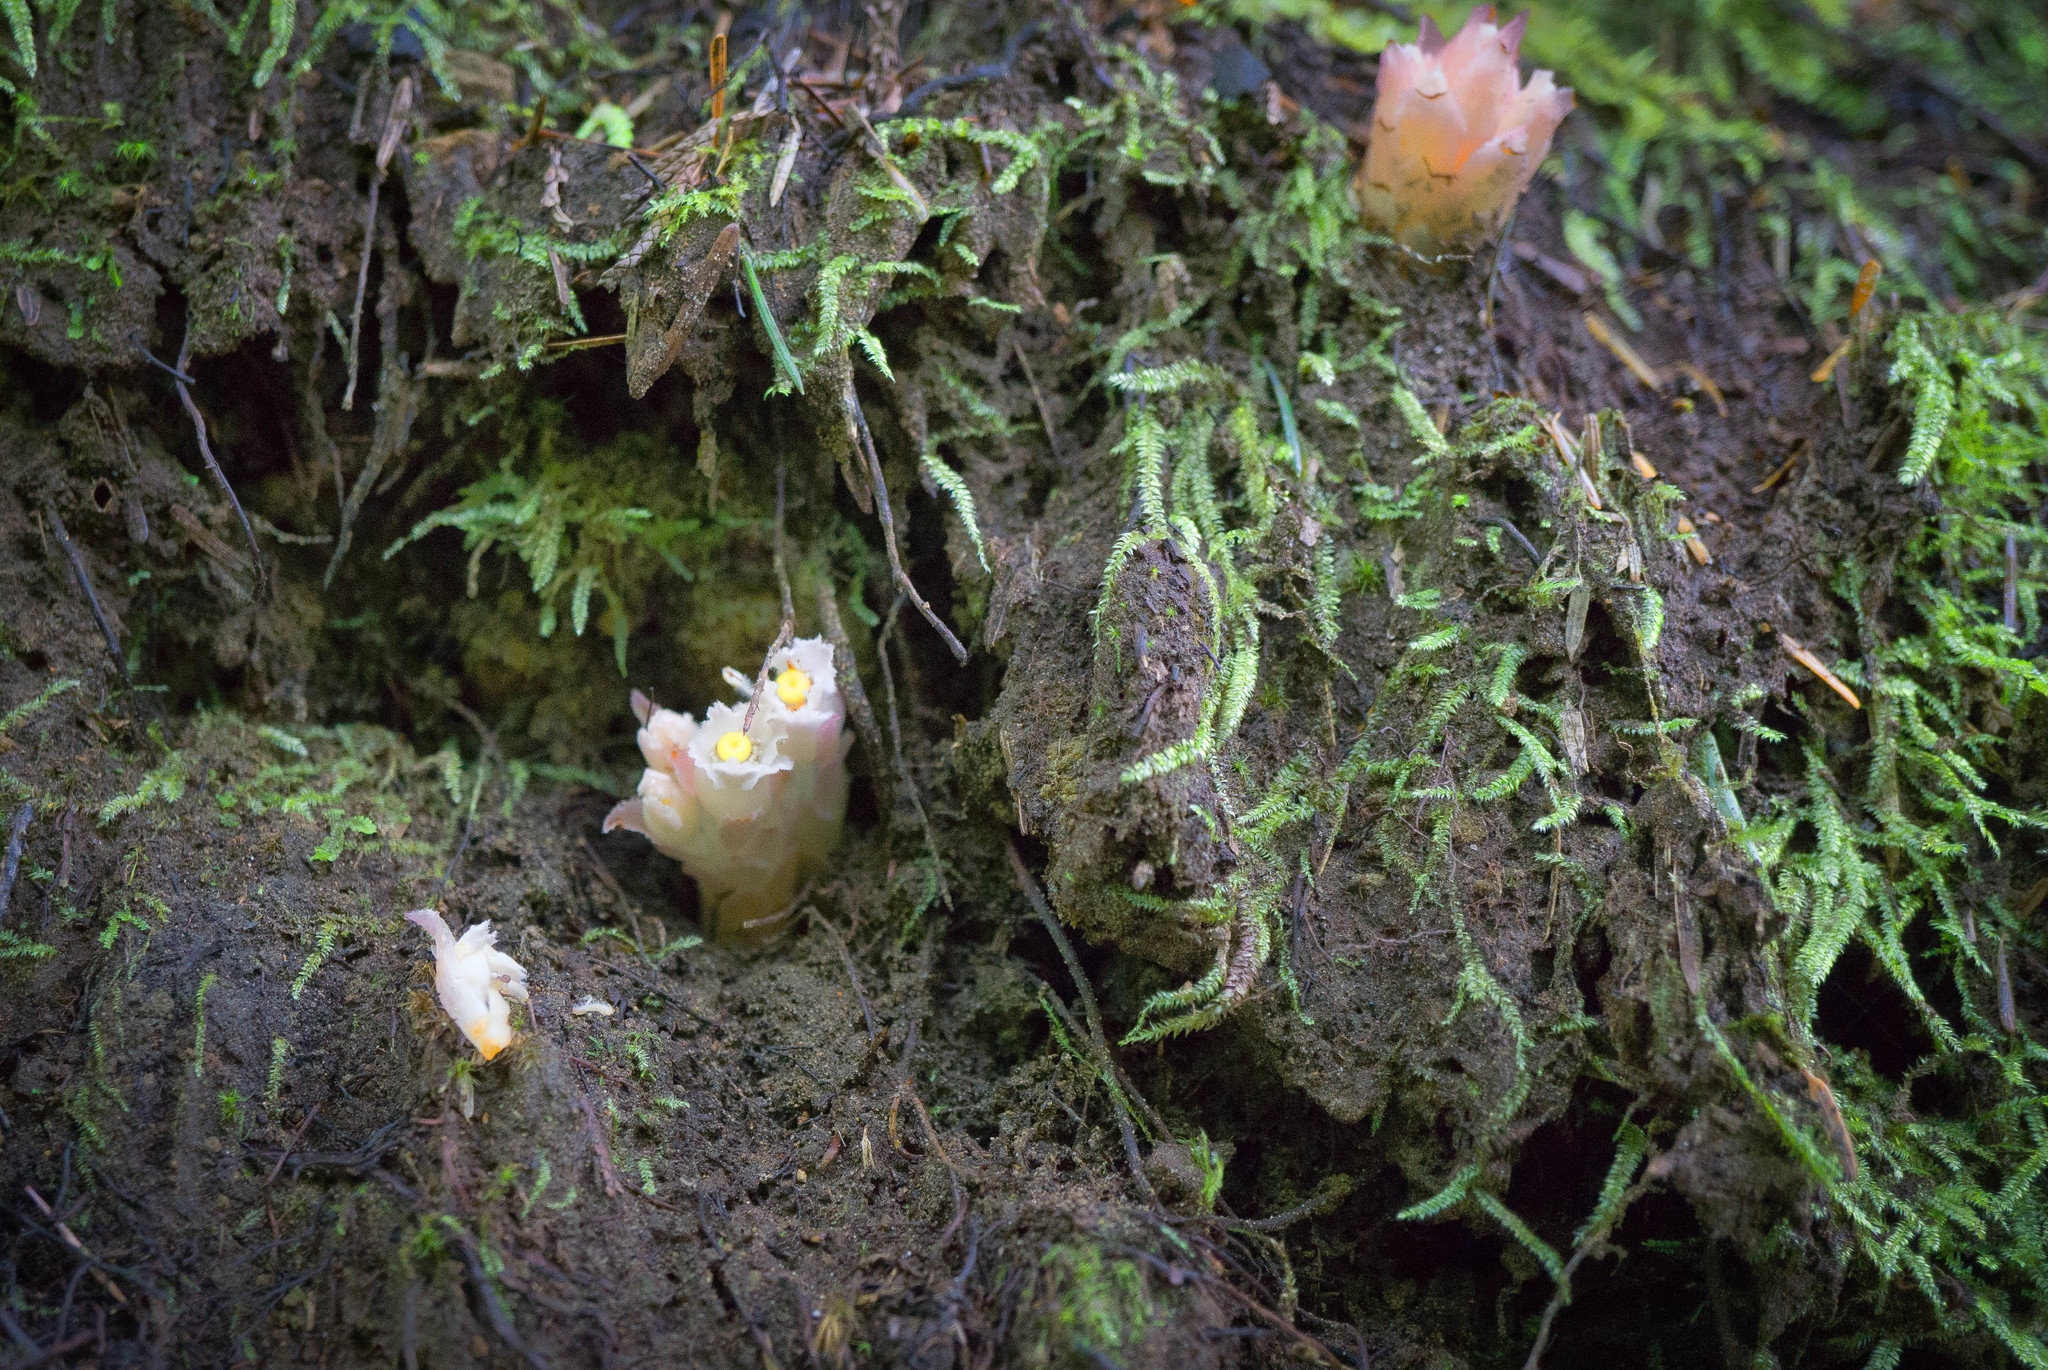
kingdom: Plantae
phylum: Tracheophyta
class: Magnoliopsida
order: Ericales
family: Ericaceae
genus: Hemitomes
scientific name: Hemitomes congestum
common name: Cone plant
